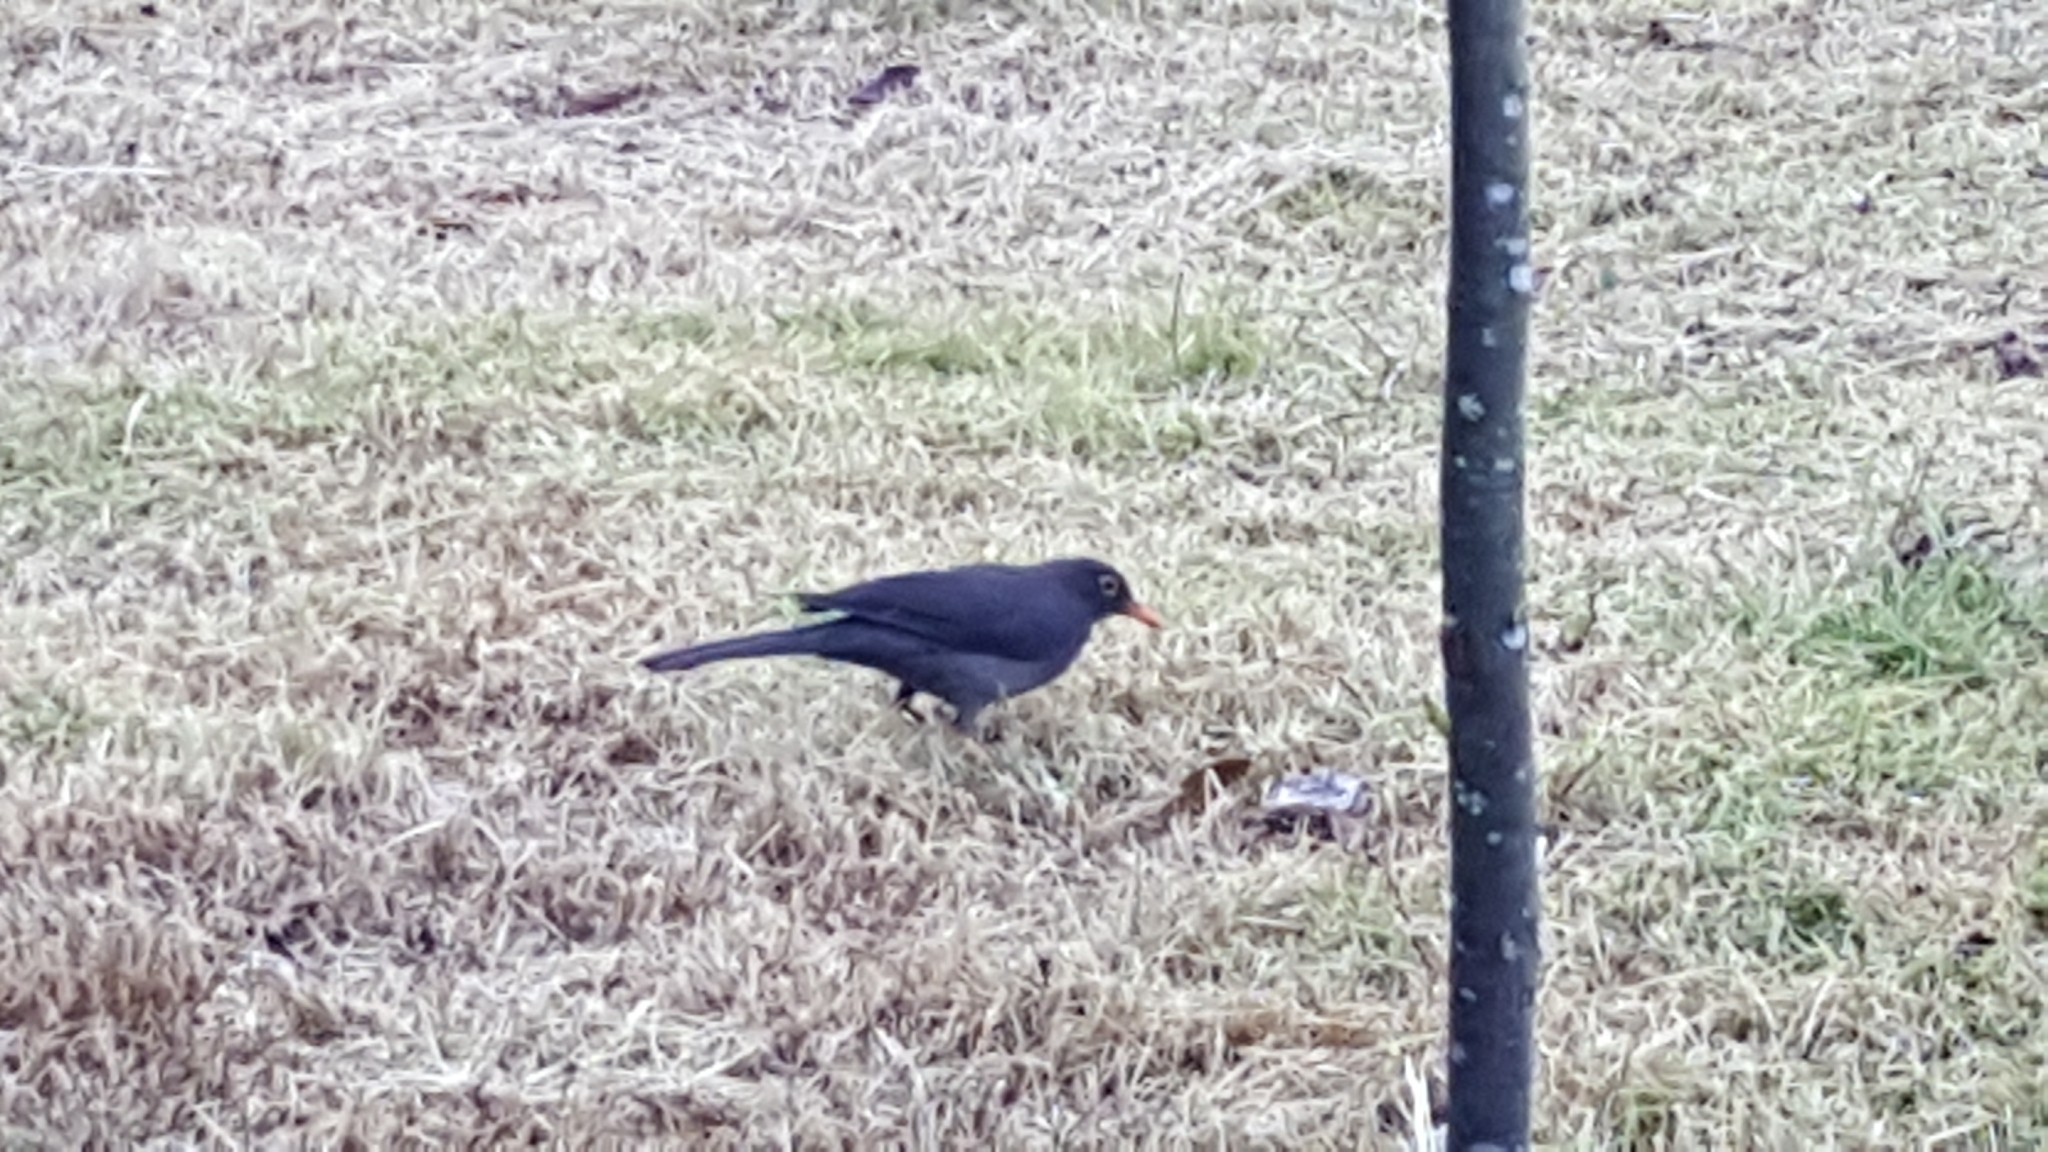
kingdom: Animalia
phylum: Chordata
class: Aves
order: Passeriformes
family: Turdidae
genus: Turdus
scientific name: Turdus fuscater
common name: Great thrush
